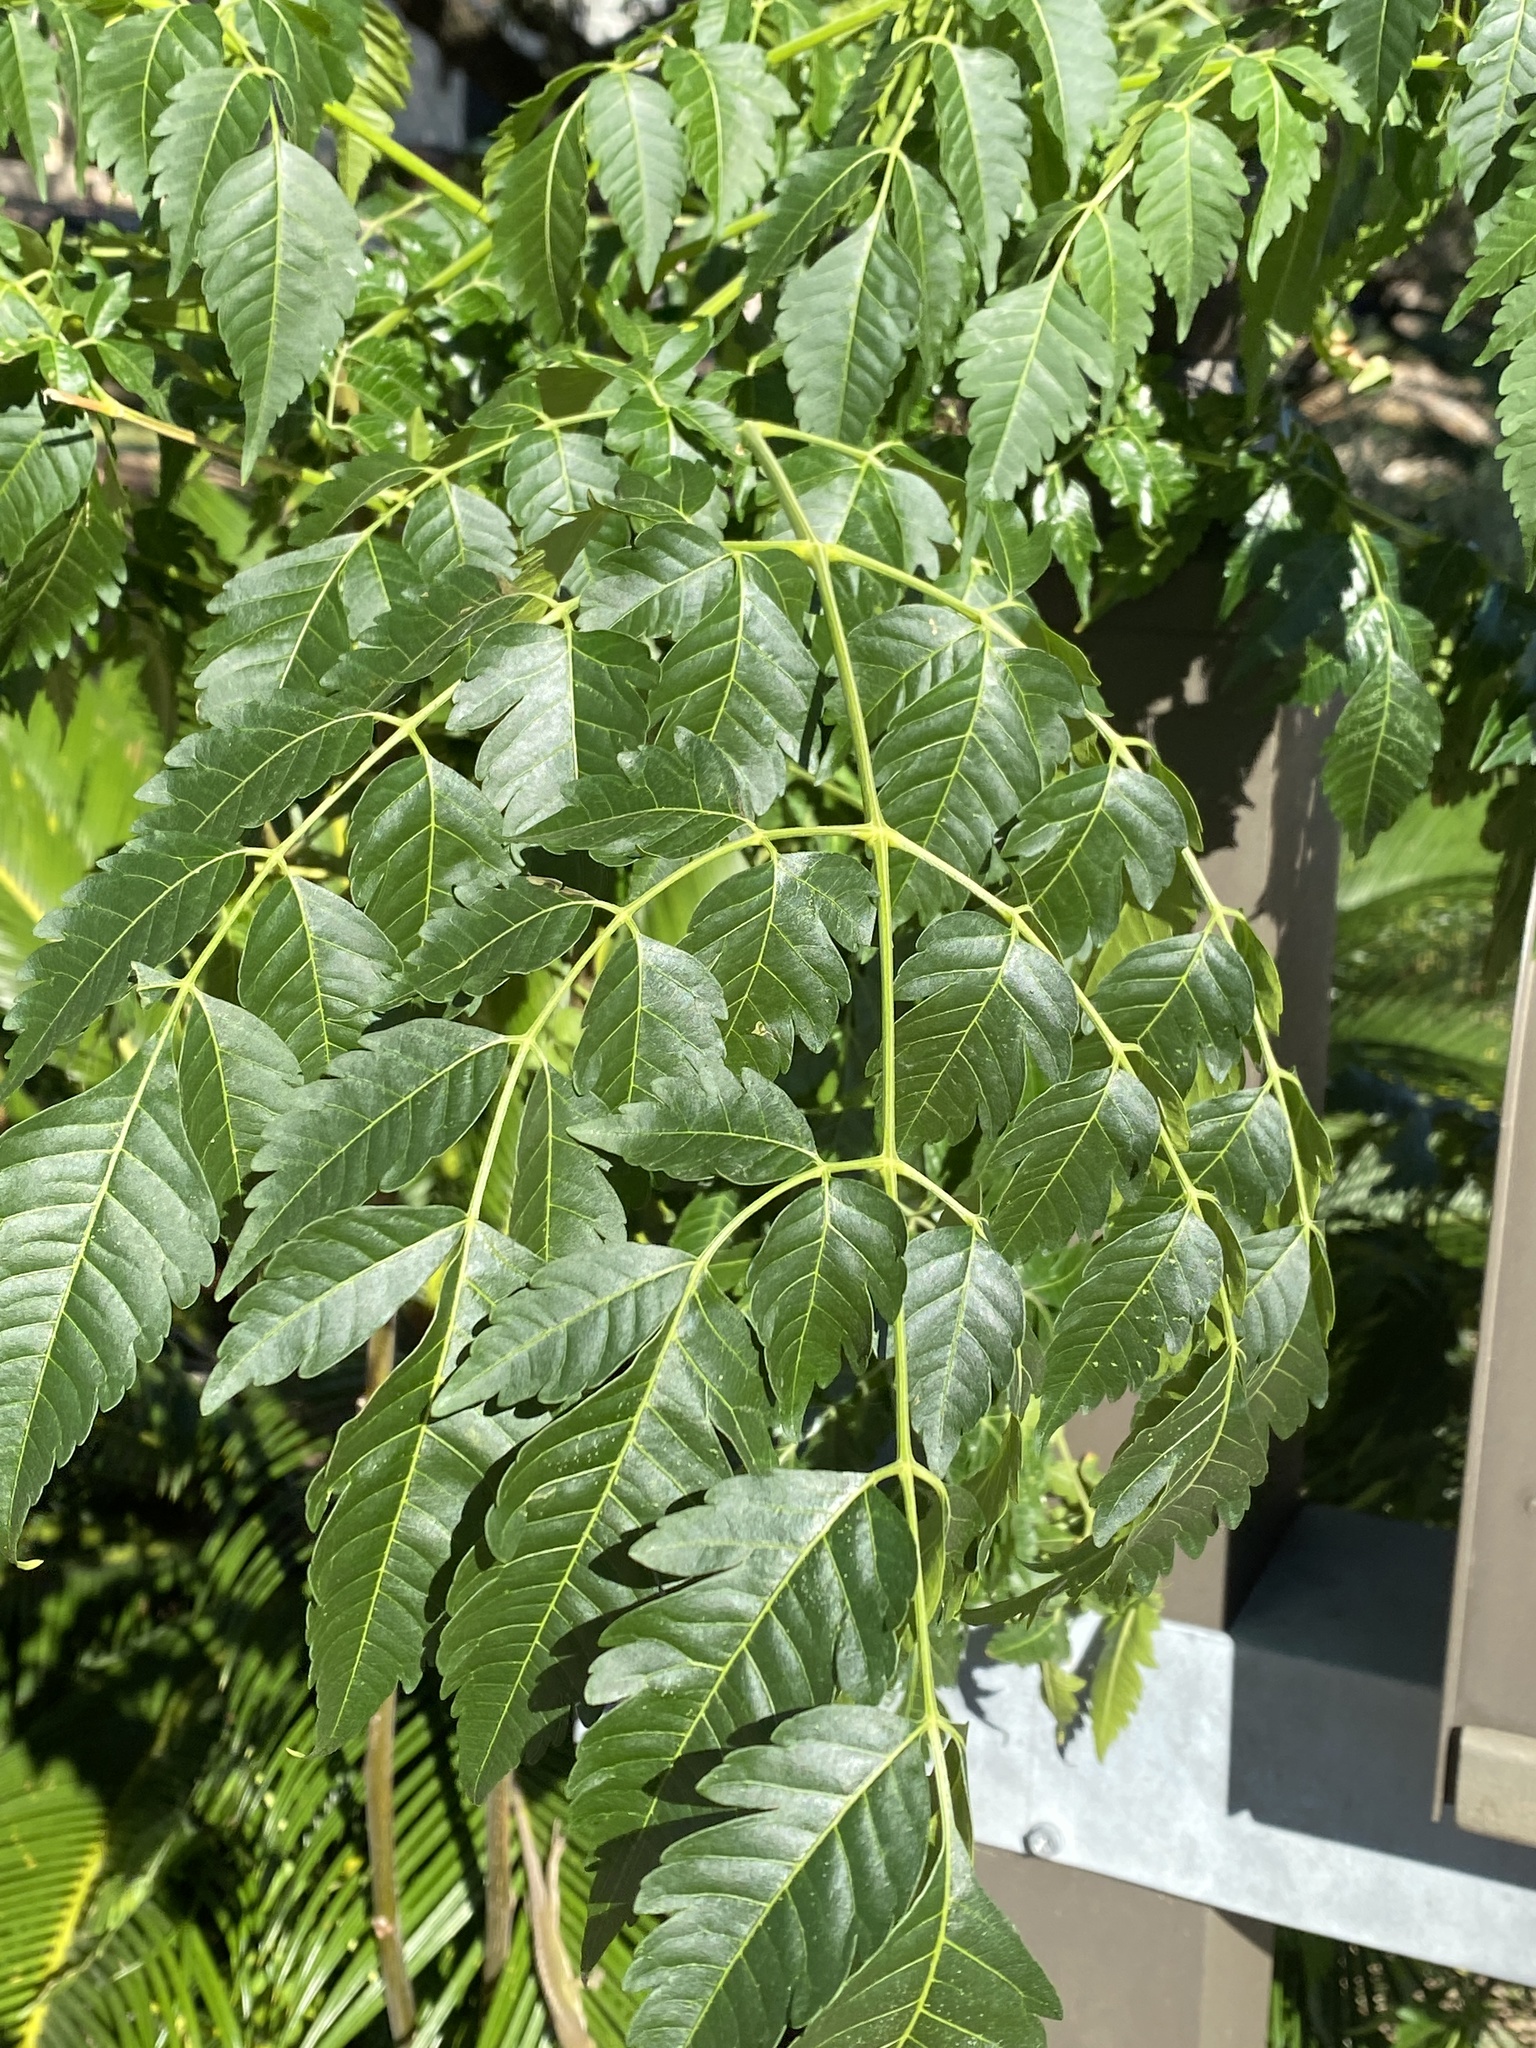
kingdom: Plantae
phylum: Tracheophyta
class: Magnoliopsida
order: Sapindales
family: Meliaceae
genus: Melia
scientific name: Melia azedarach
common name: Chinaberrytree
